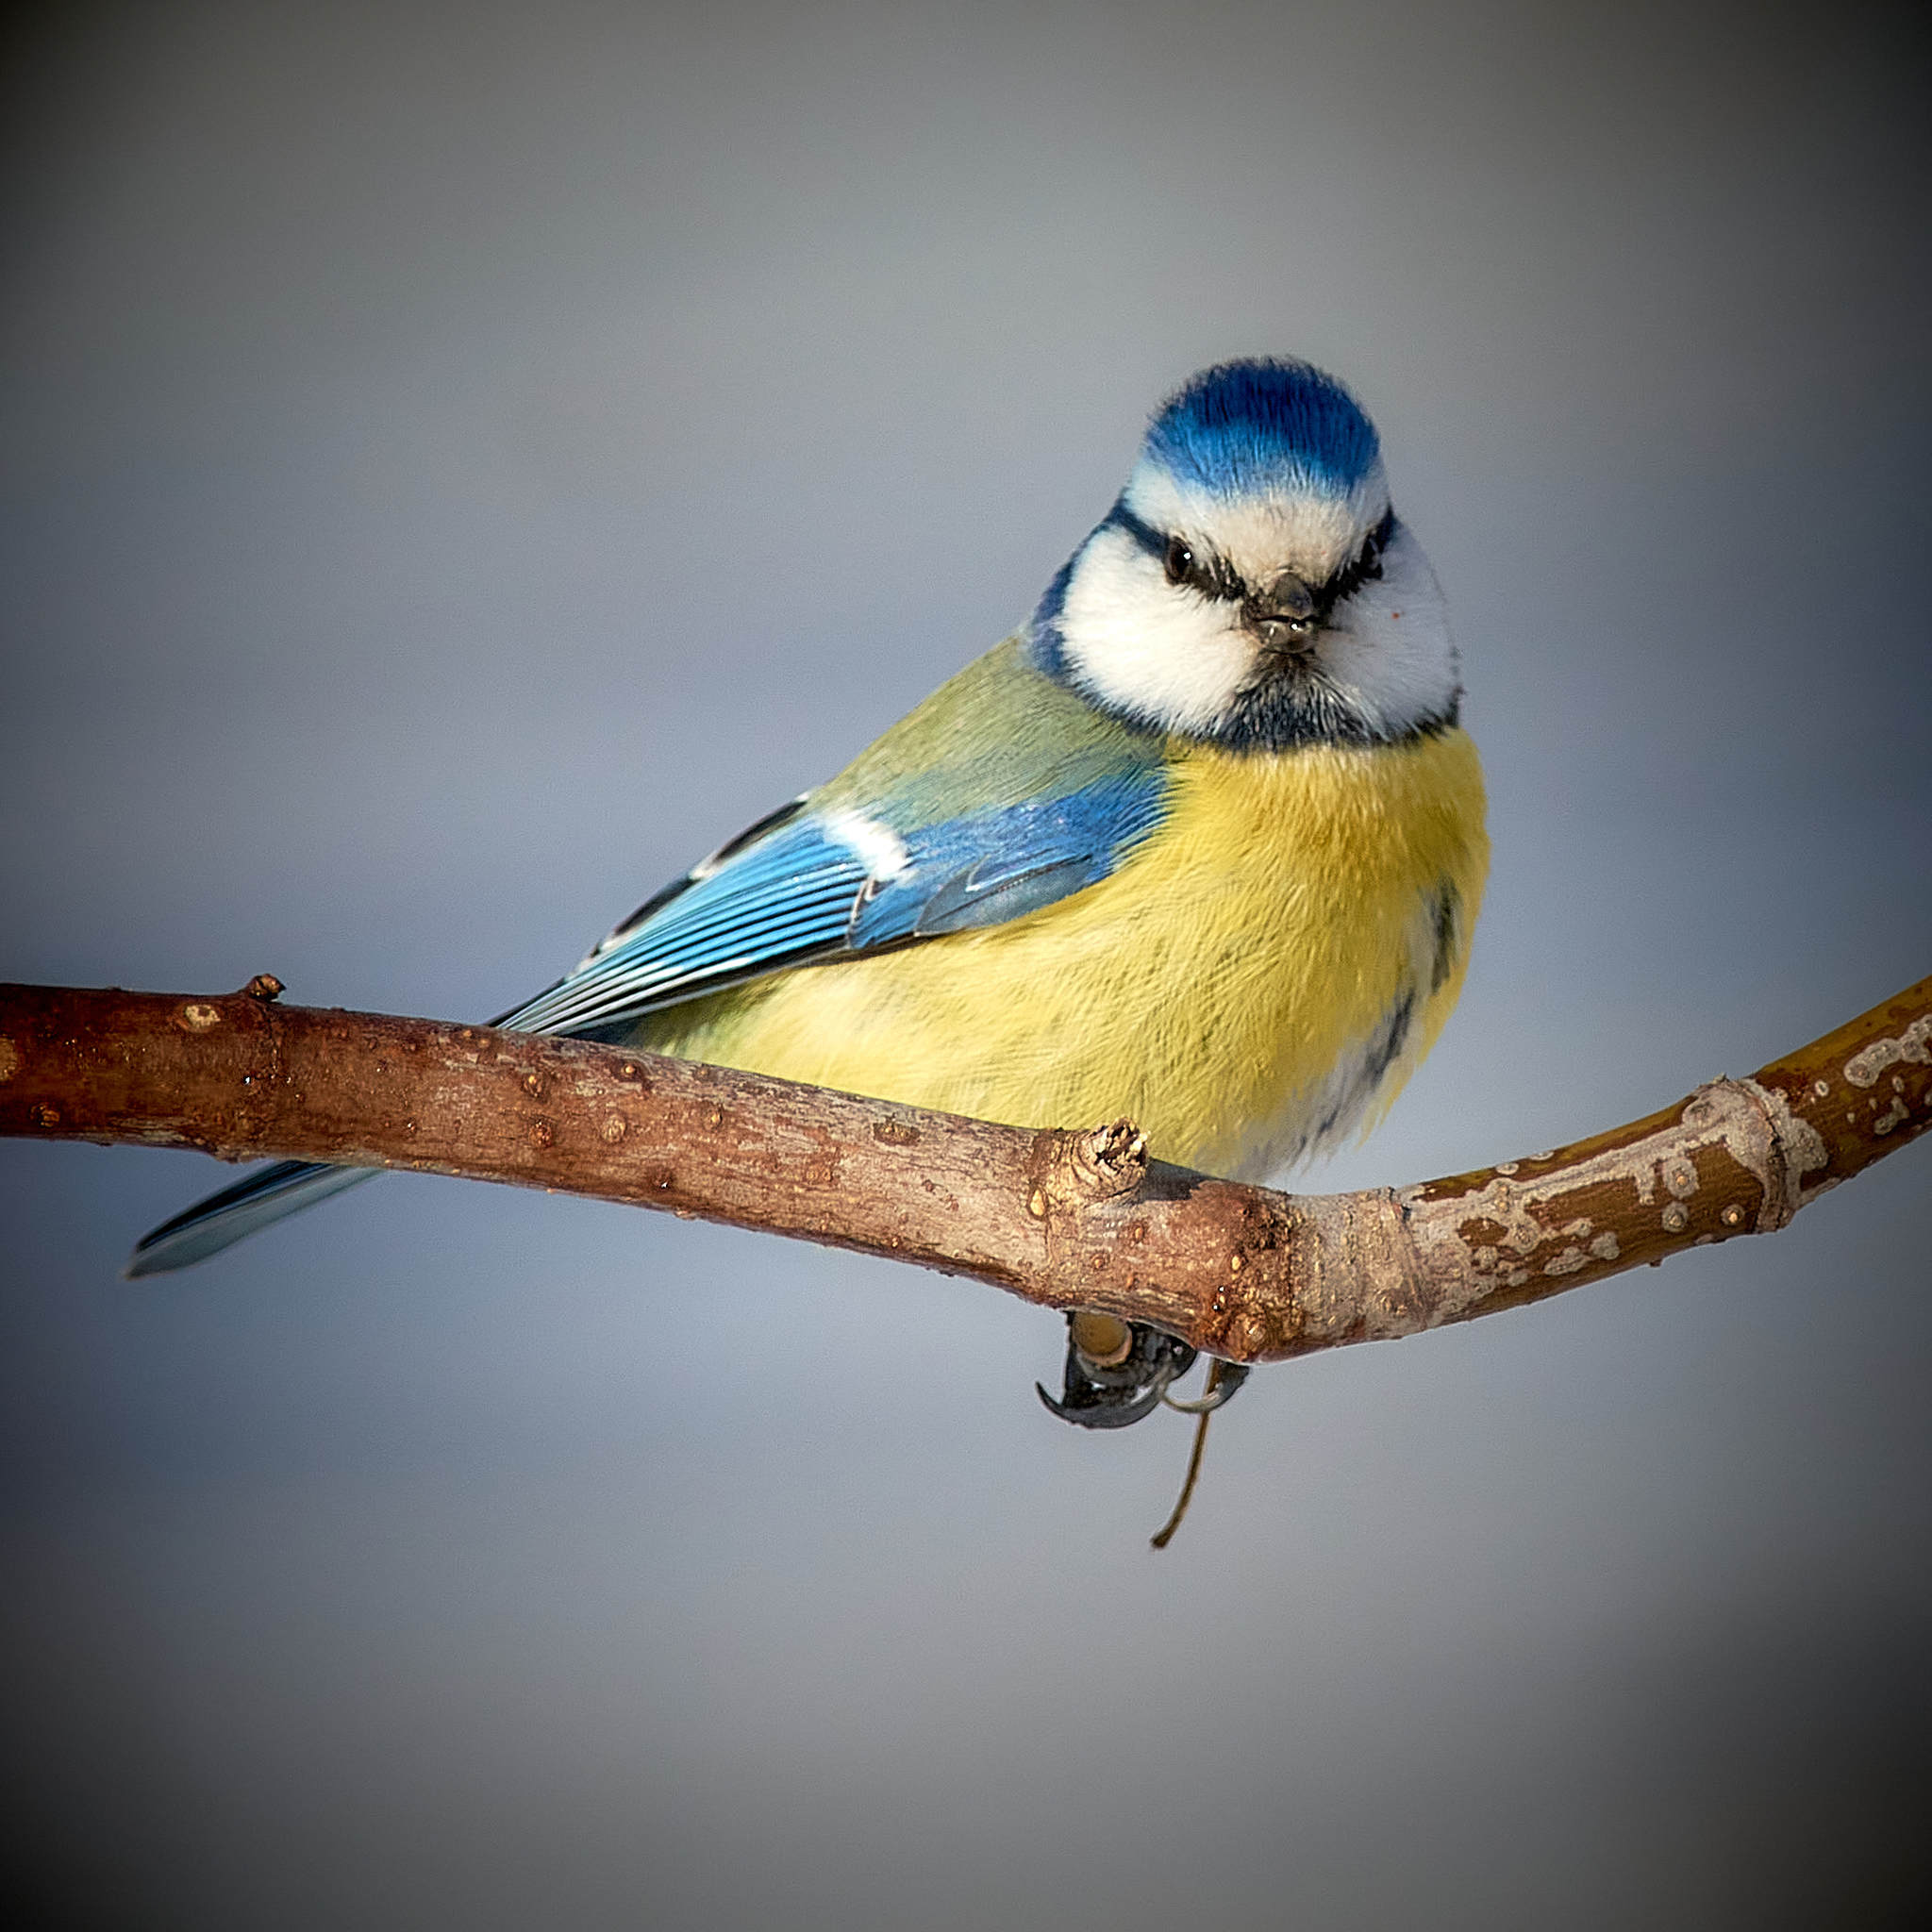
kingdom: Animalia
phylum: Chordata
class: Aves
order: Passeriformes
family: Paridae
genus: Cyanistes
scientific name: Cyanistes caeruleus
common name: Eurasian blue tit
